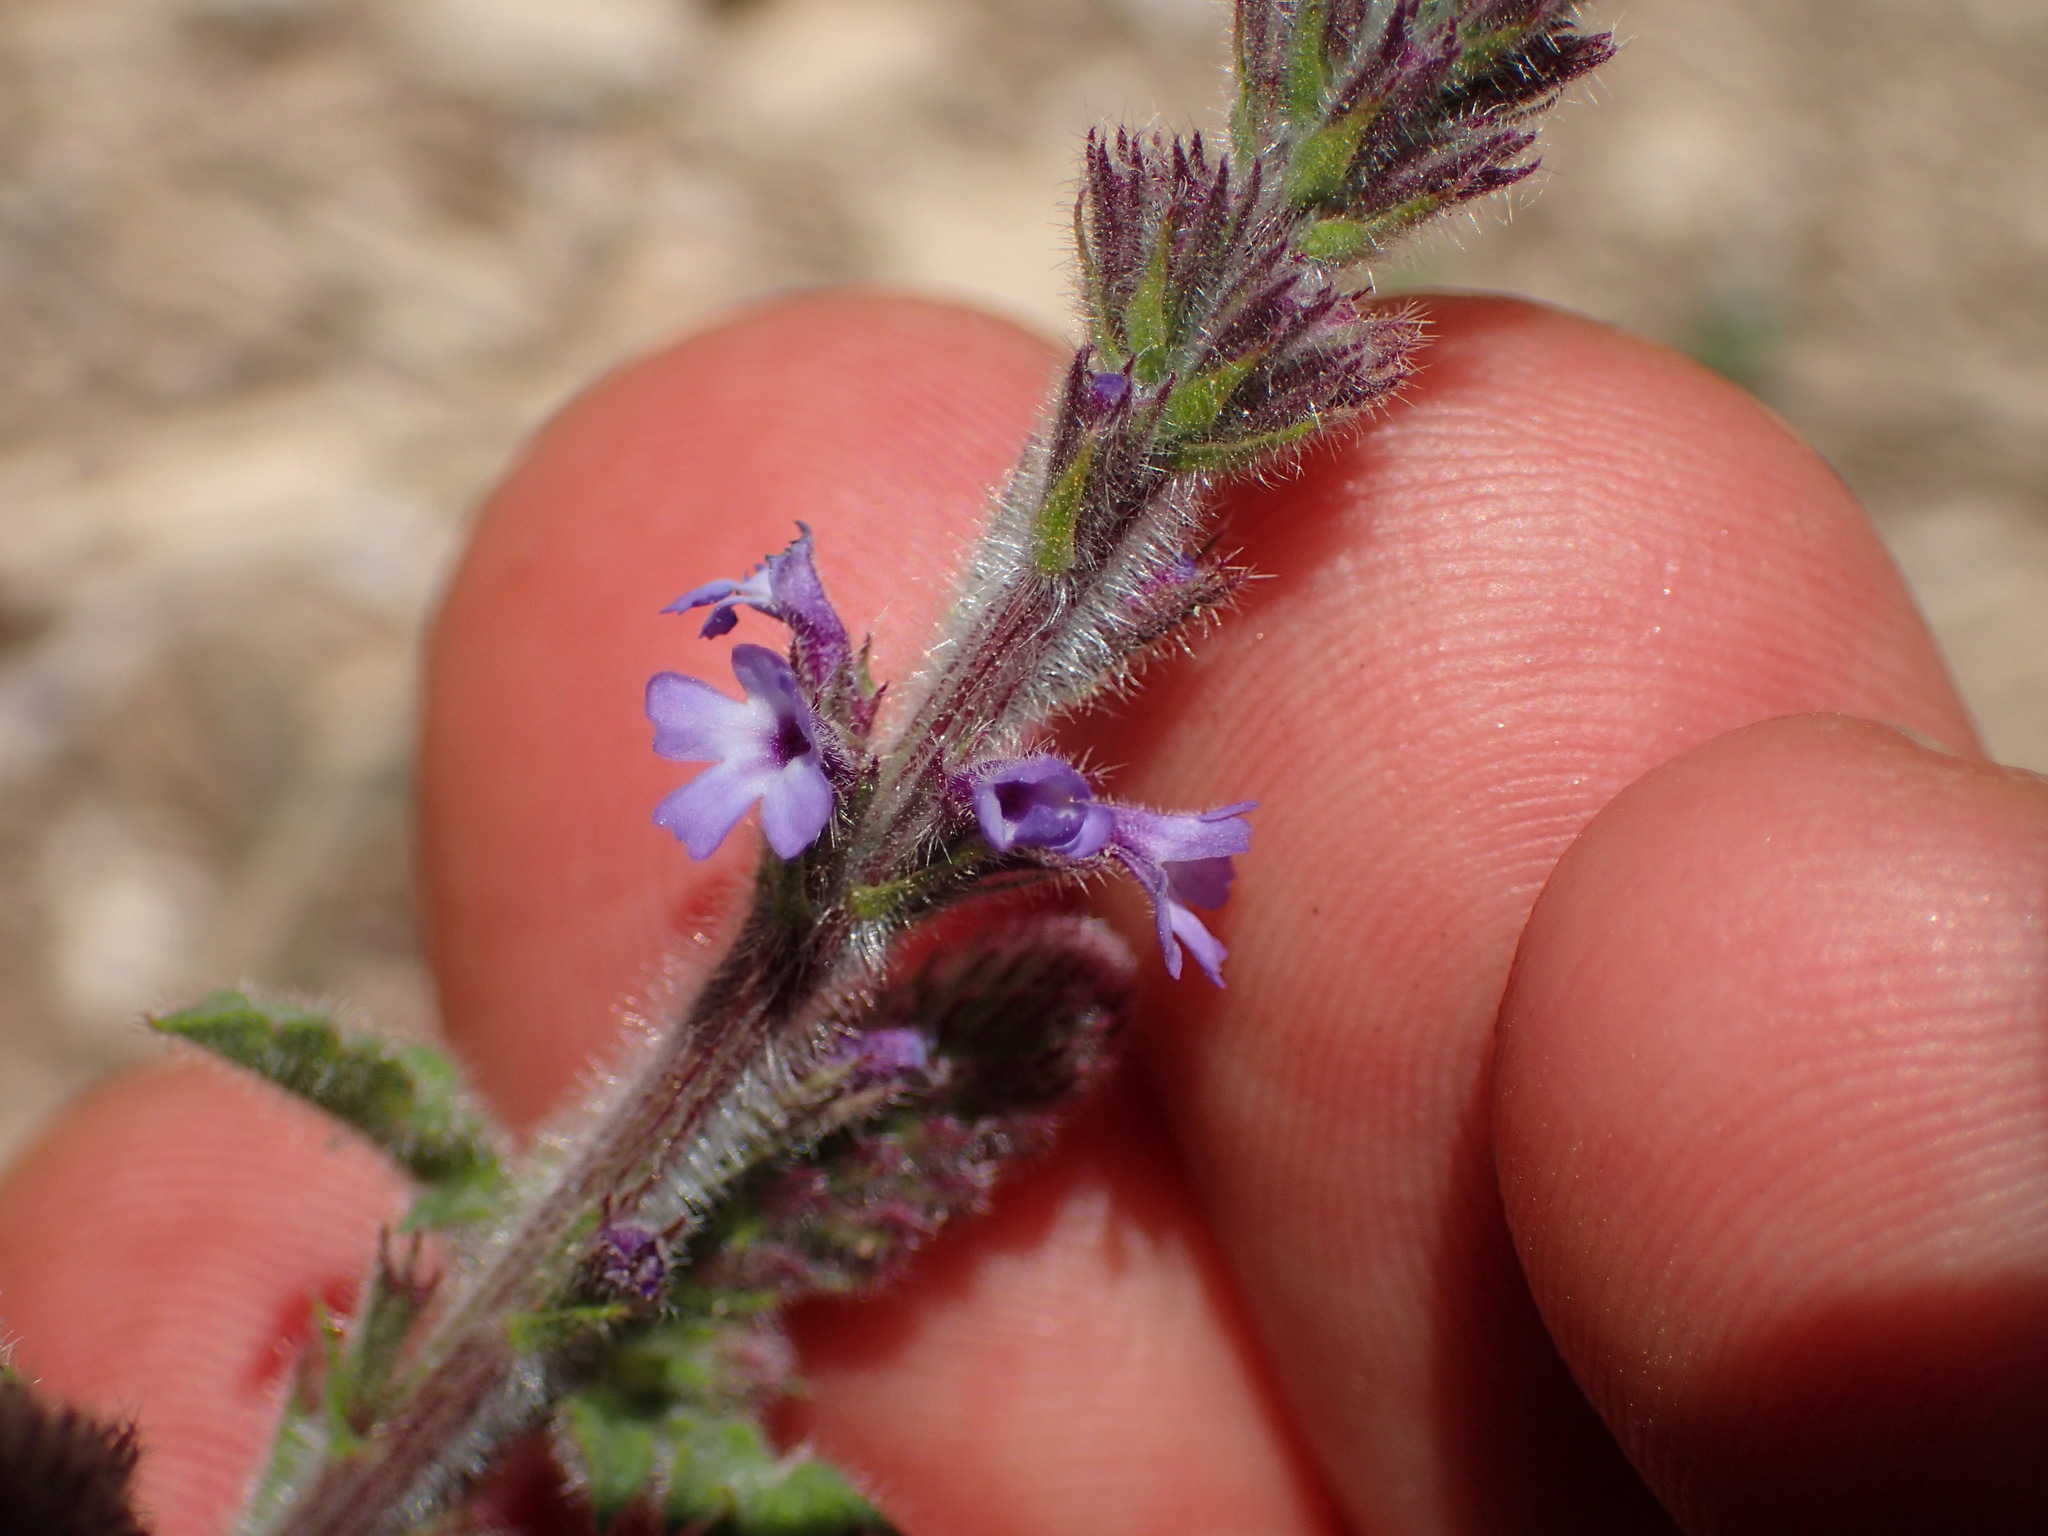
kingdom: Plantae
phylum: Tracheophyta
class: Magnoliopsida
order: Lamiales
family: Verbenaceae
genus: Verbena
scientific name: Verbena lasiostachys
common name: Vervain
